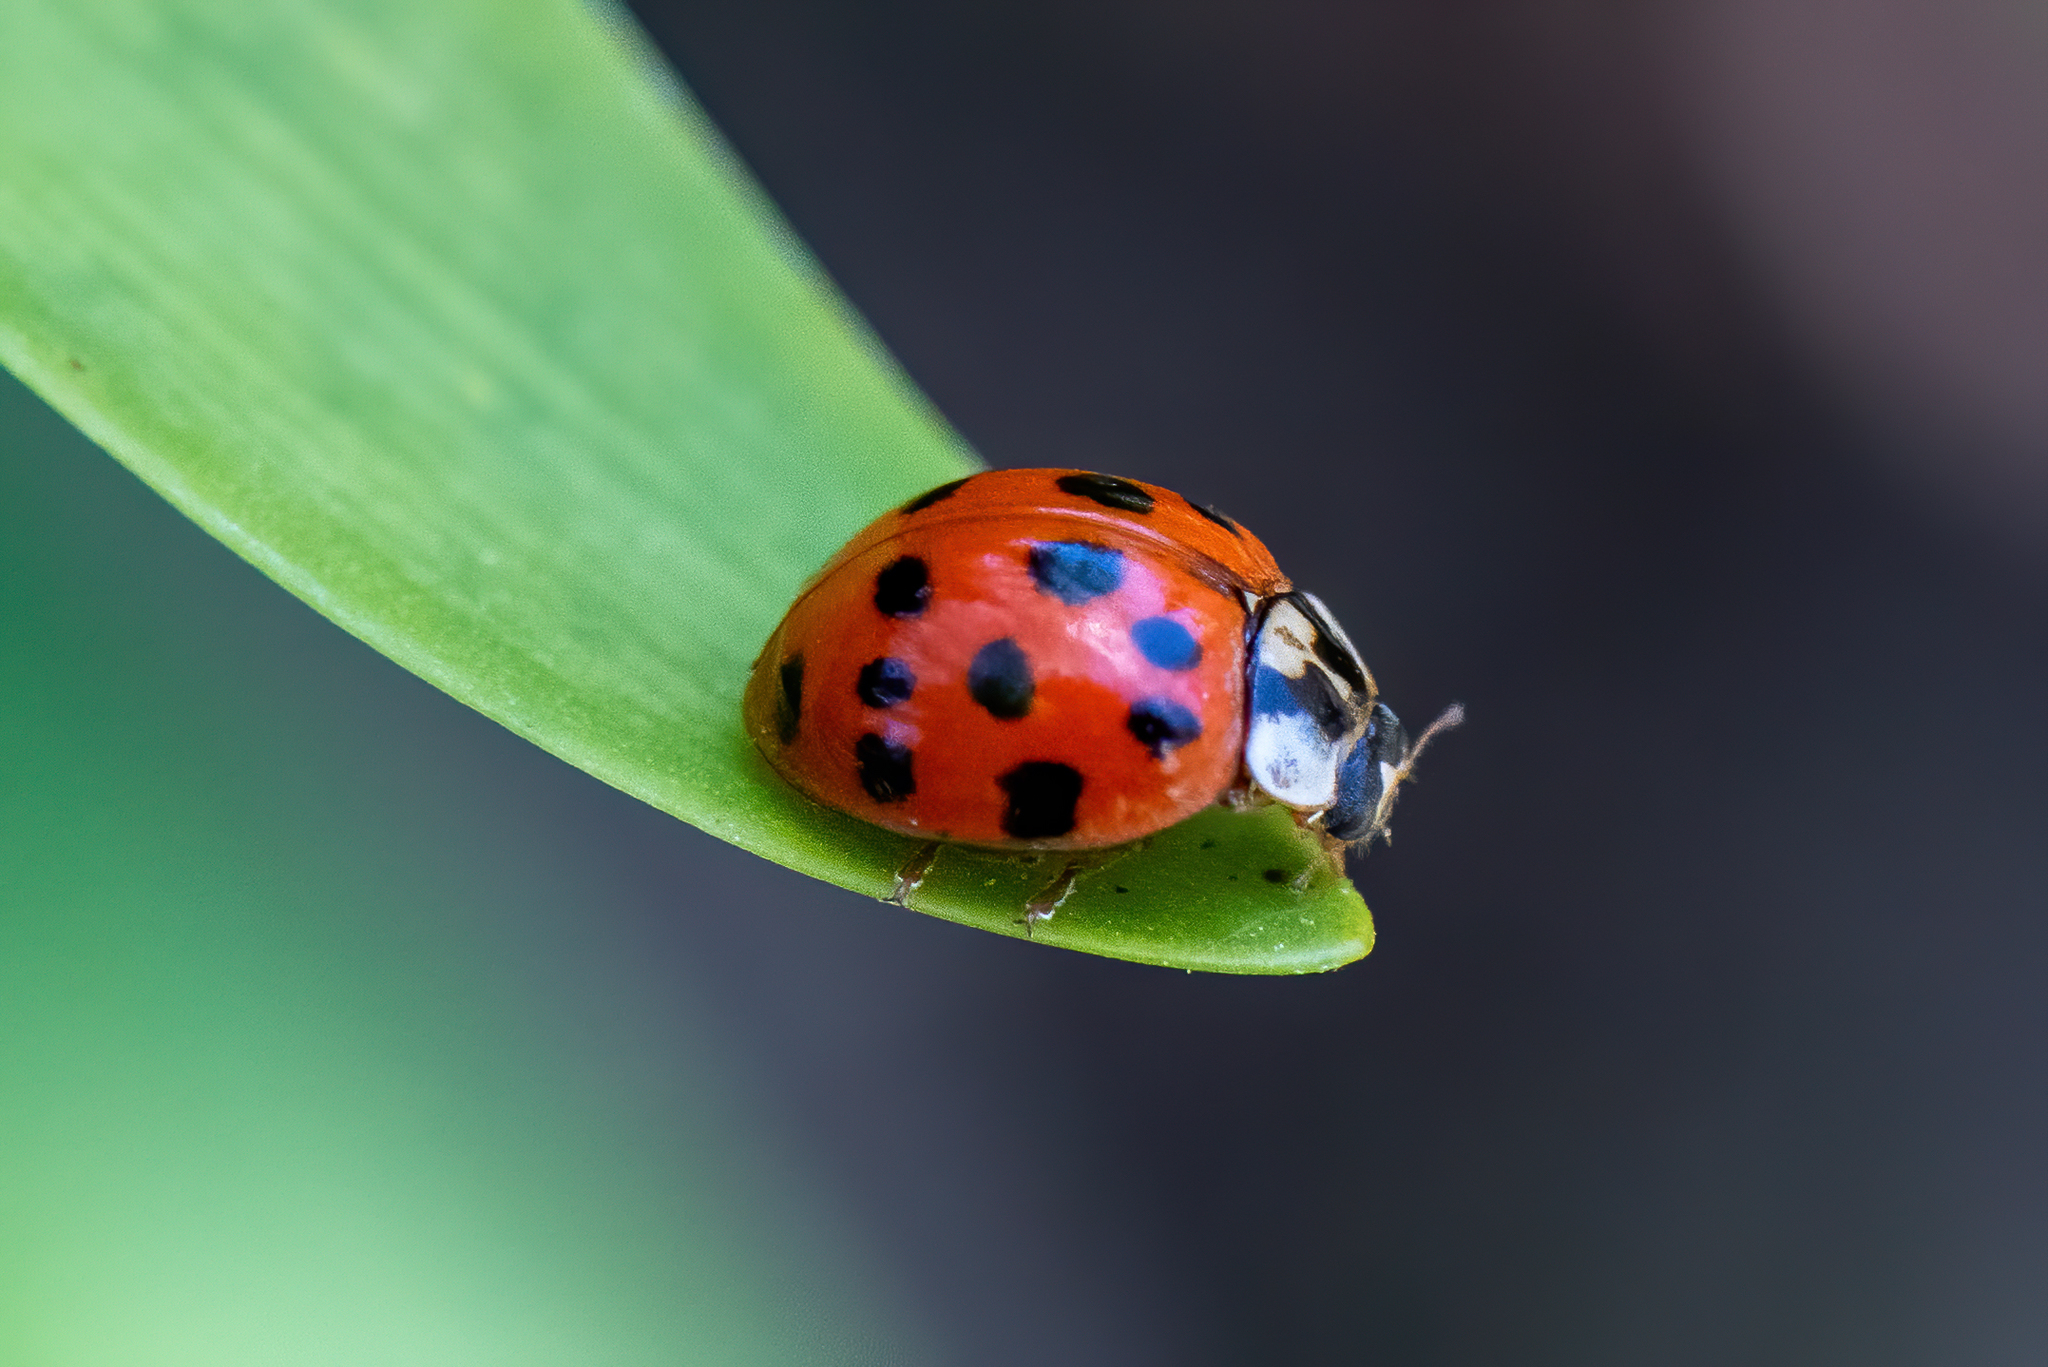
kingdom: Animalia
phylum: Arthropoda
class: Insecta
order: Coleoptera
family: Coccinellidae
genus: Harmonia
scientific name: Harmonia axyridis
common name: Harlequin ladybird
